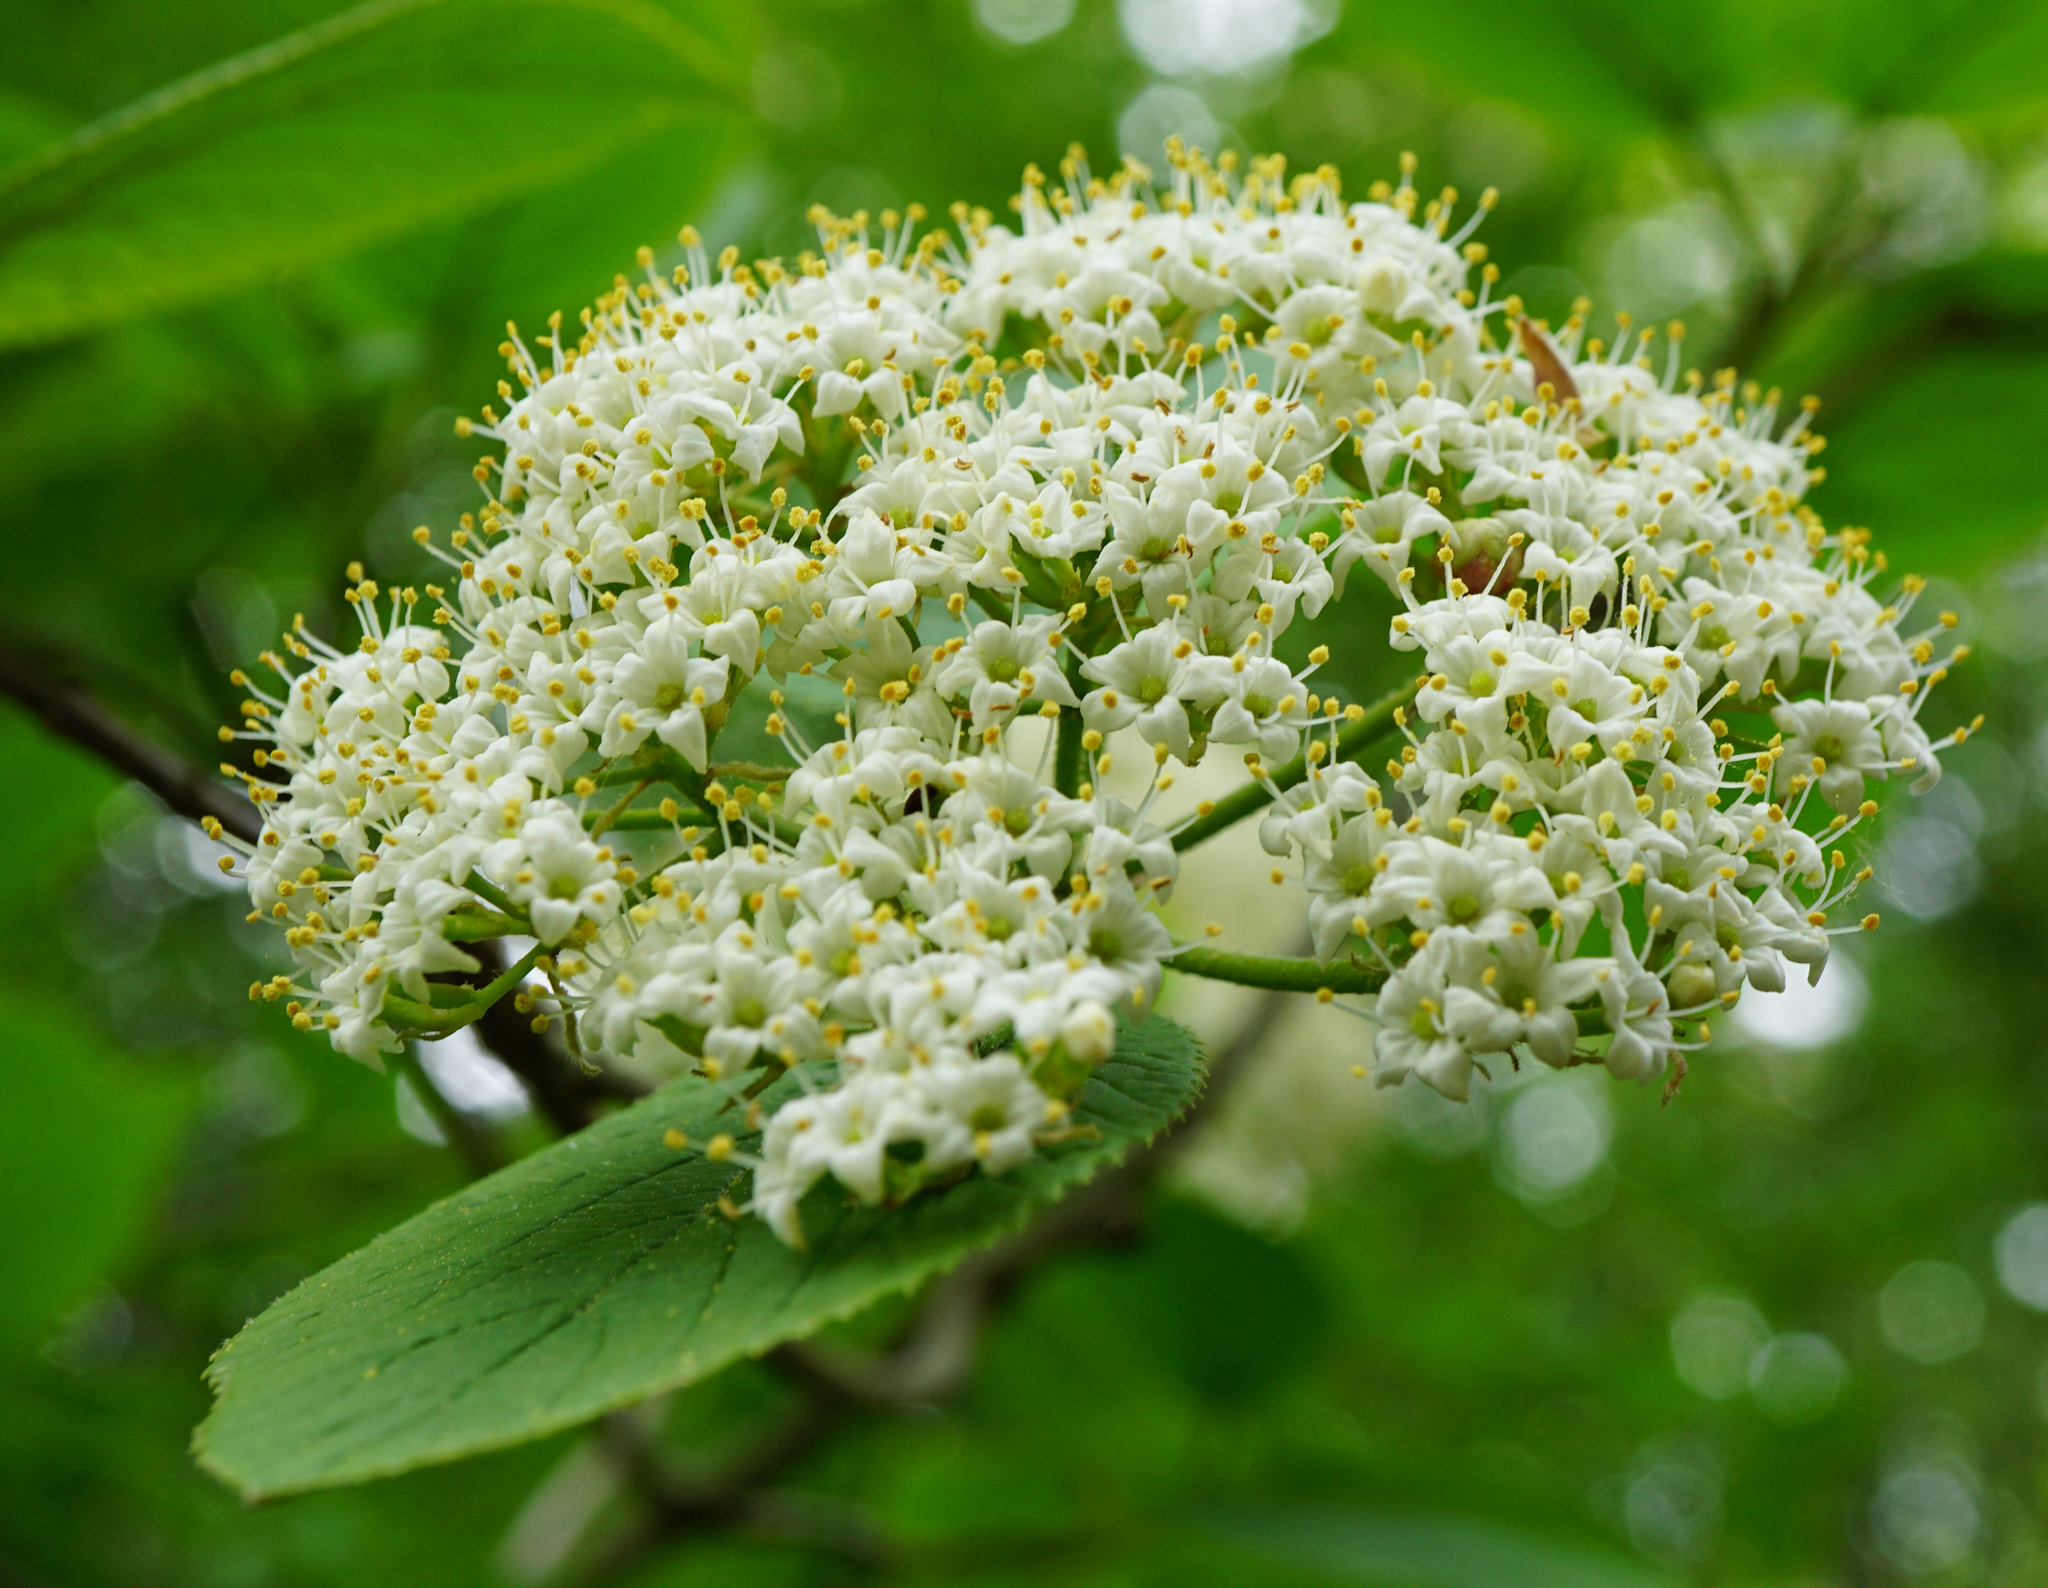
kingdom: Plantae
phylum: Tracheophyta
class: Magnoliopsida
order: Dipsacales
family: Viburnaceae
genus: Viburnum
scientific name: Viburnum lantana
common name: Wayfaring tree
